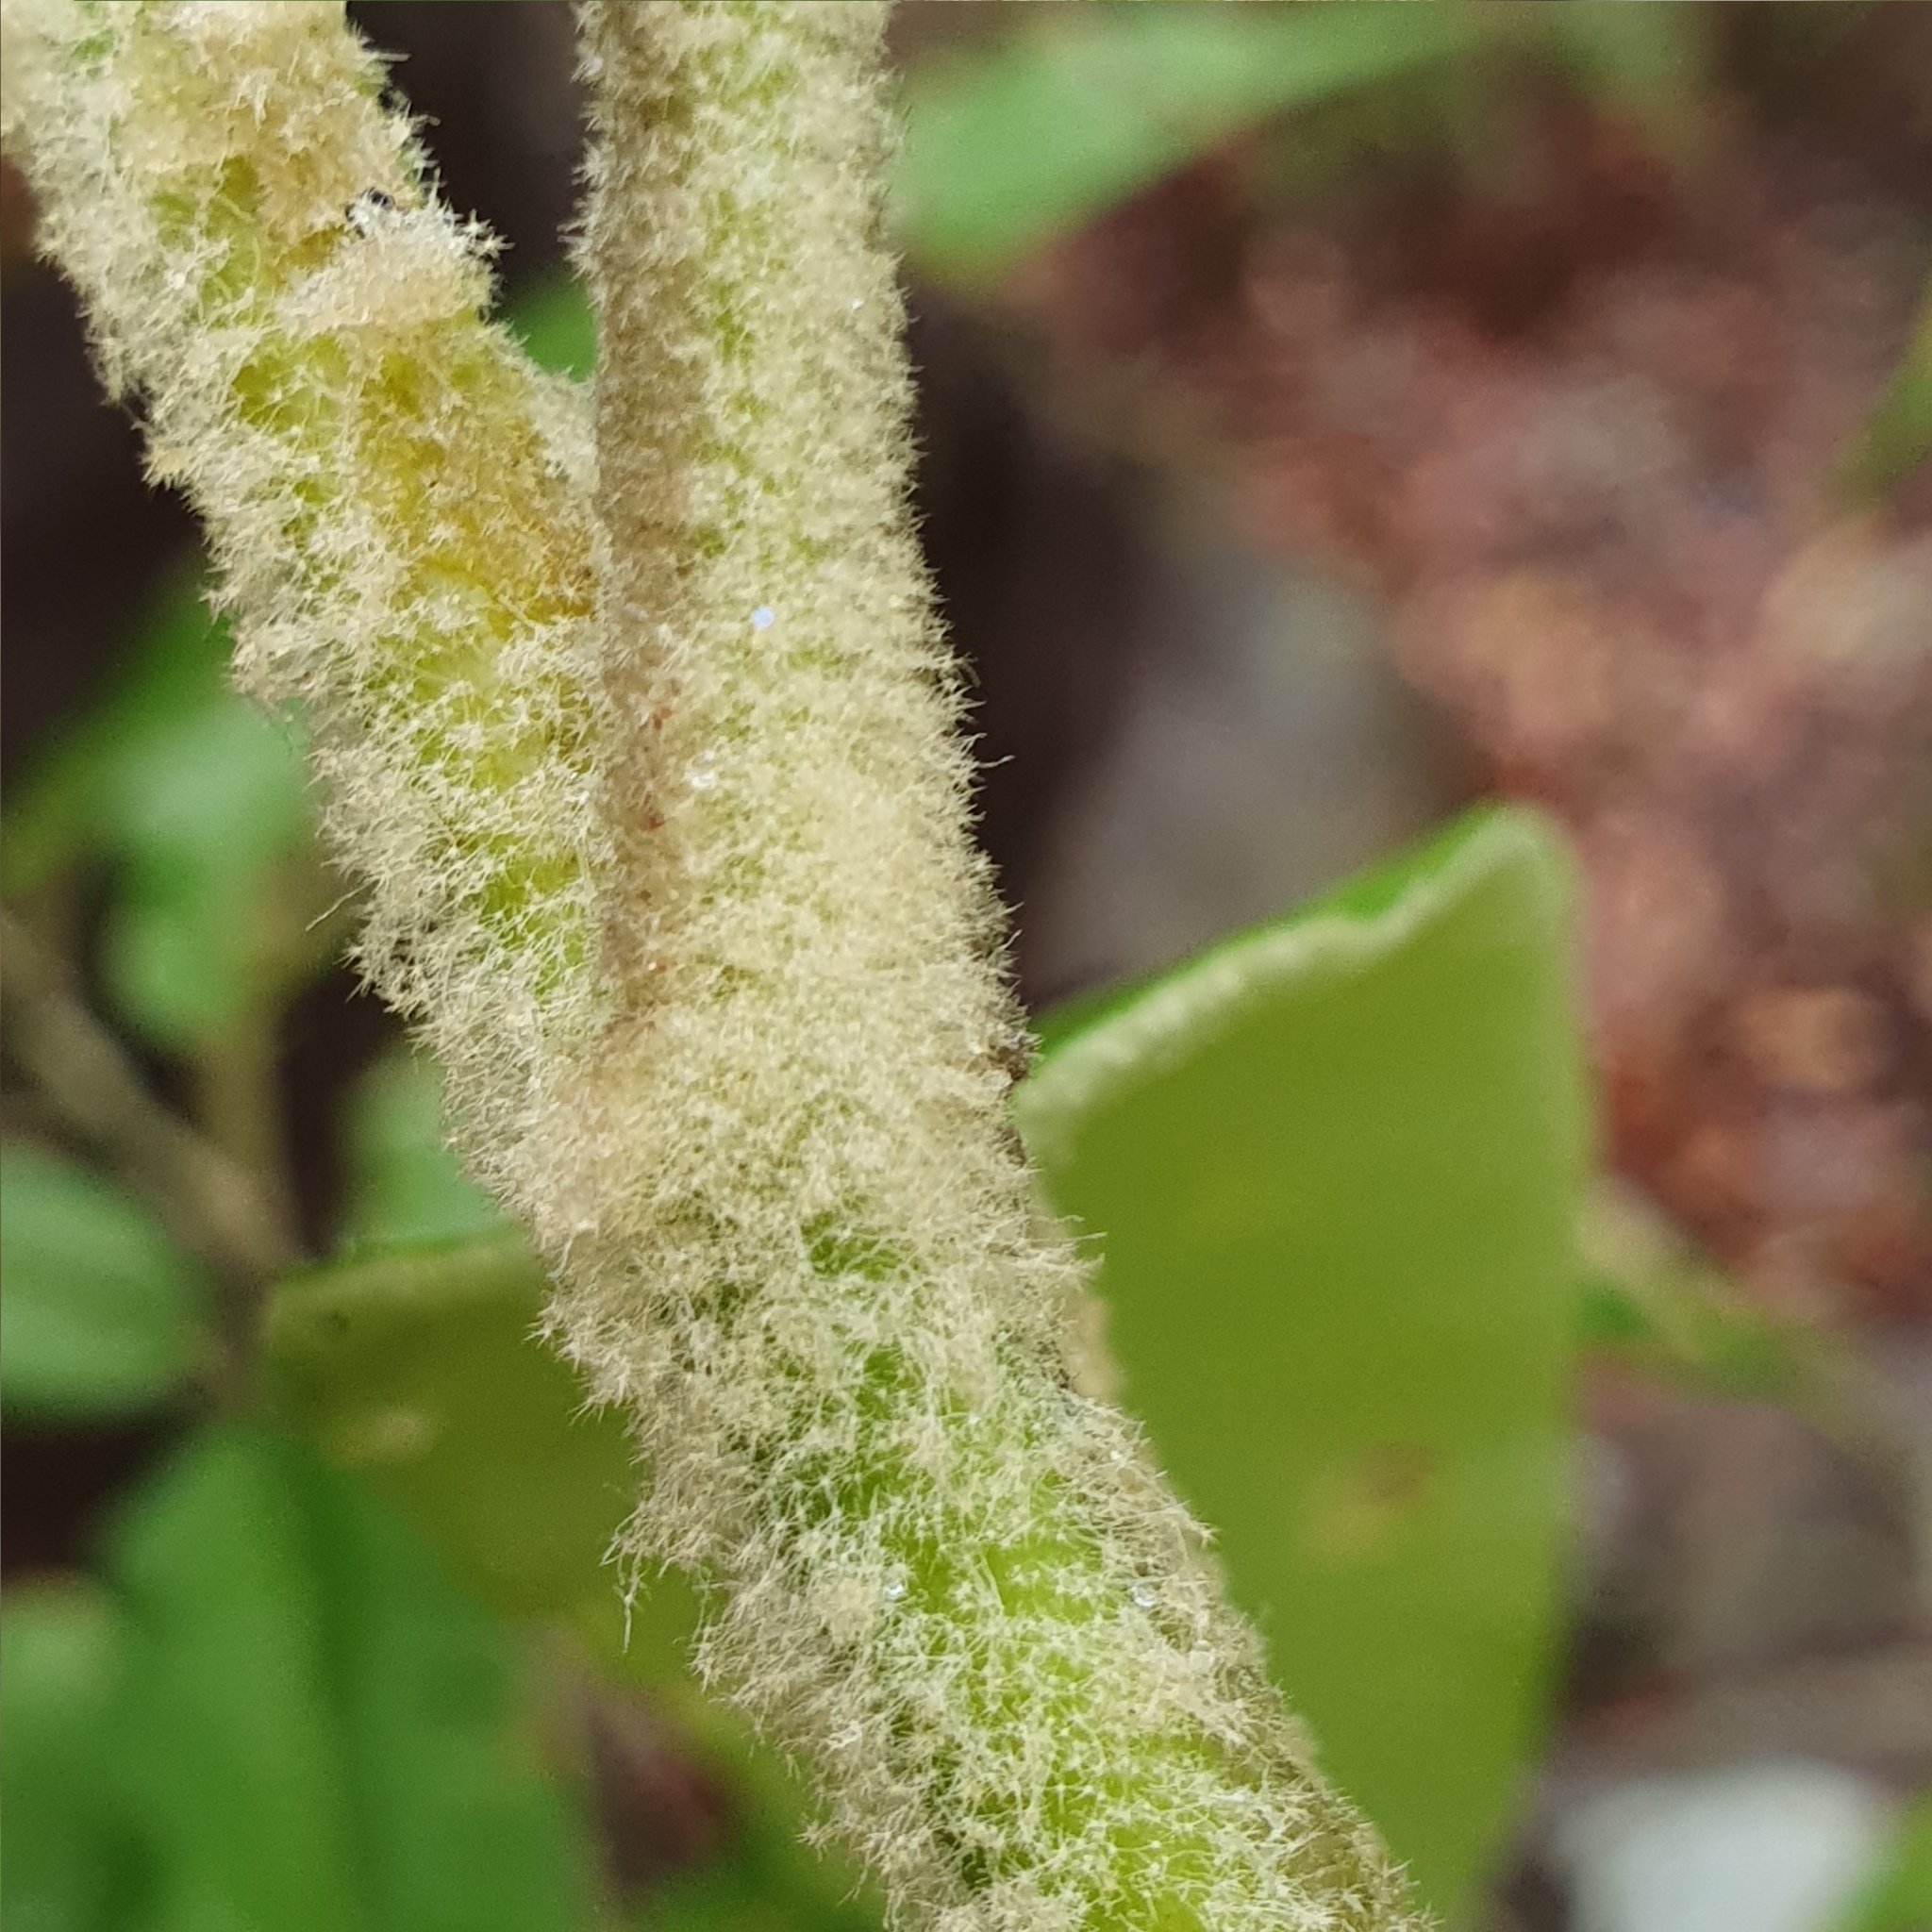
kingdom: Plantae
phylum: Tracheophyta
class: Magnoliopsida
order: Apiales
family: Araliaceae
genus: Astrotricha
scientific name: Astrotricha floccosa
